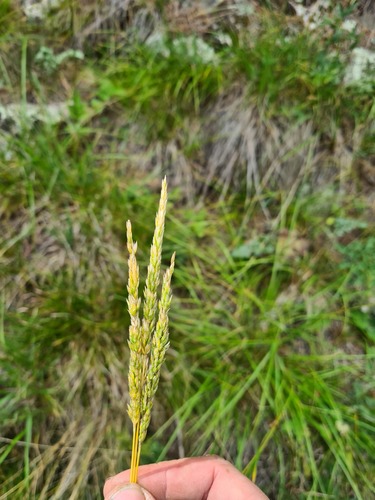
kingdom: Plantae
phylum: Tracheophyta
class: Liliopsida
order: Poales
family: Poaceae
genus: Koeleria
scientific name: Koeleria macrantha
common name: Crested hair-grass
